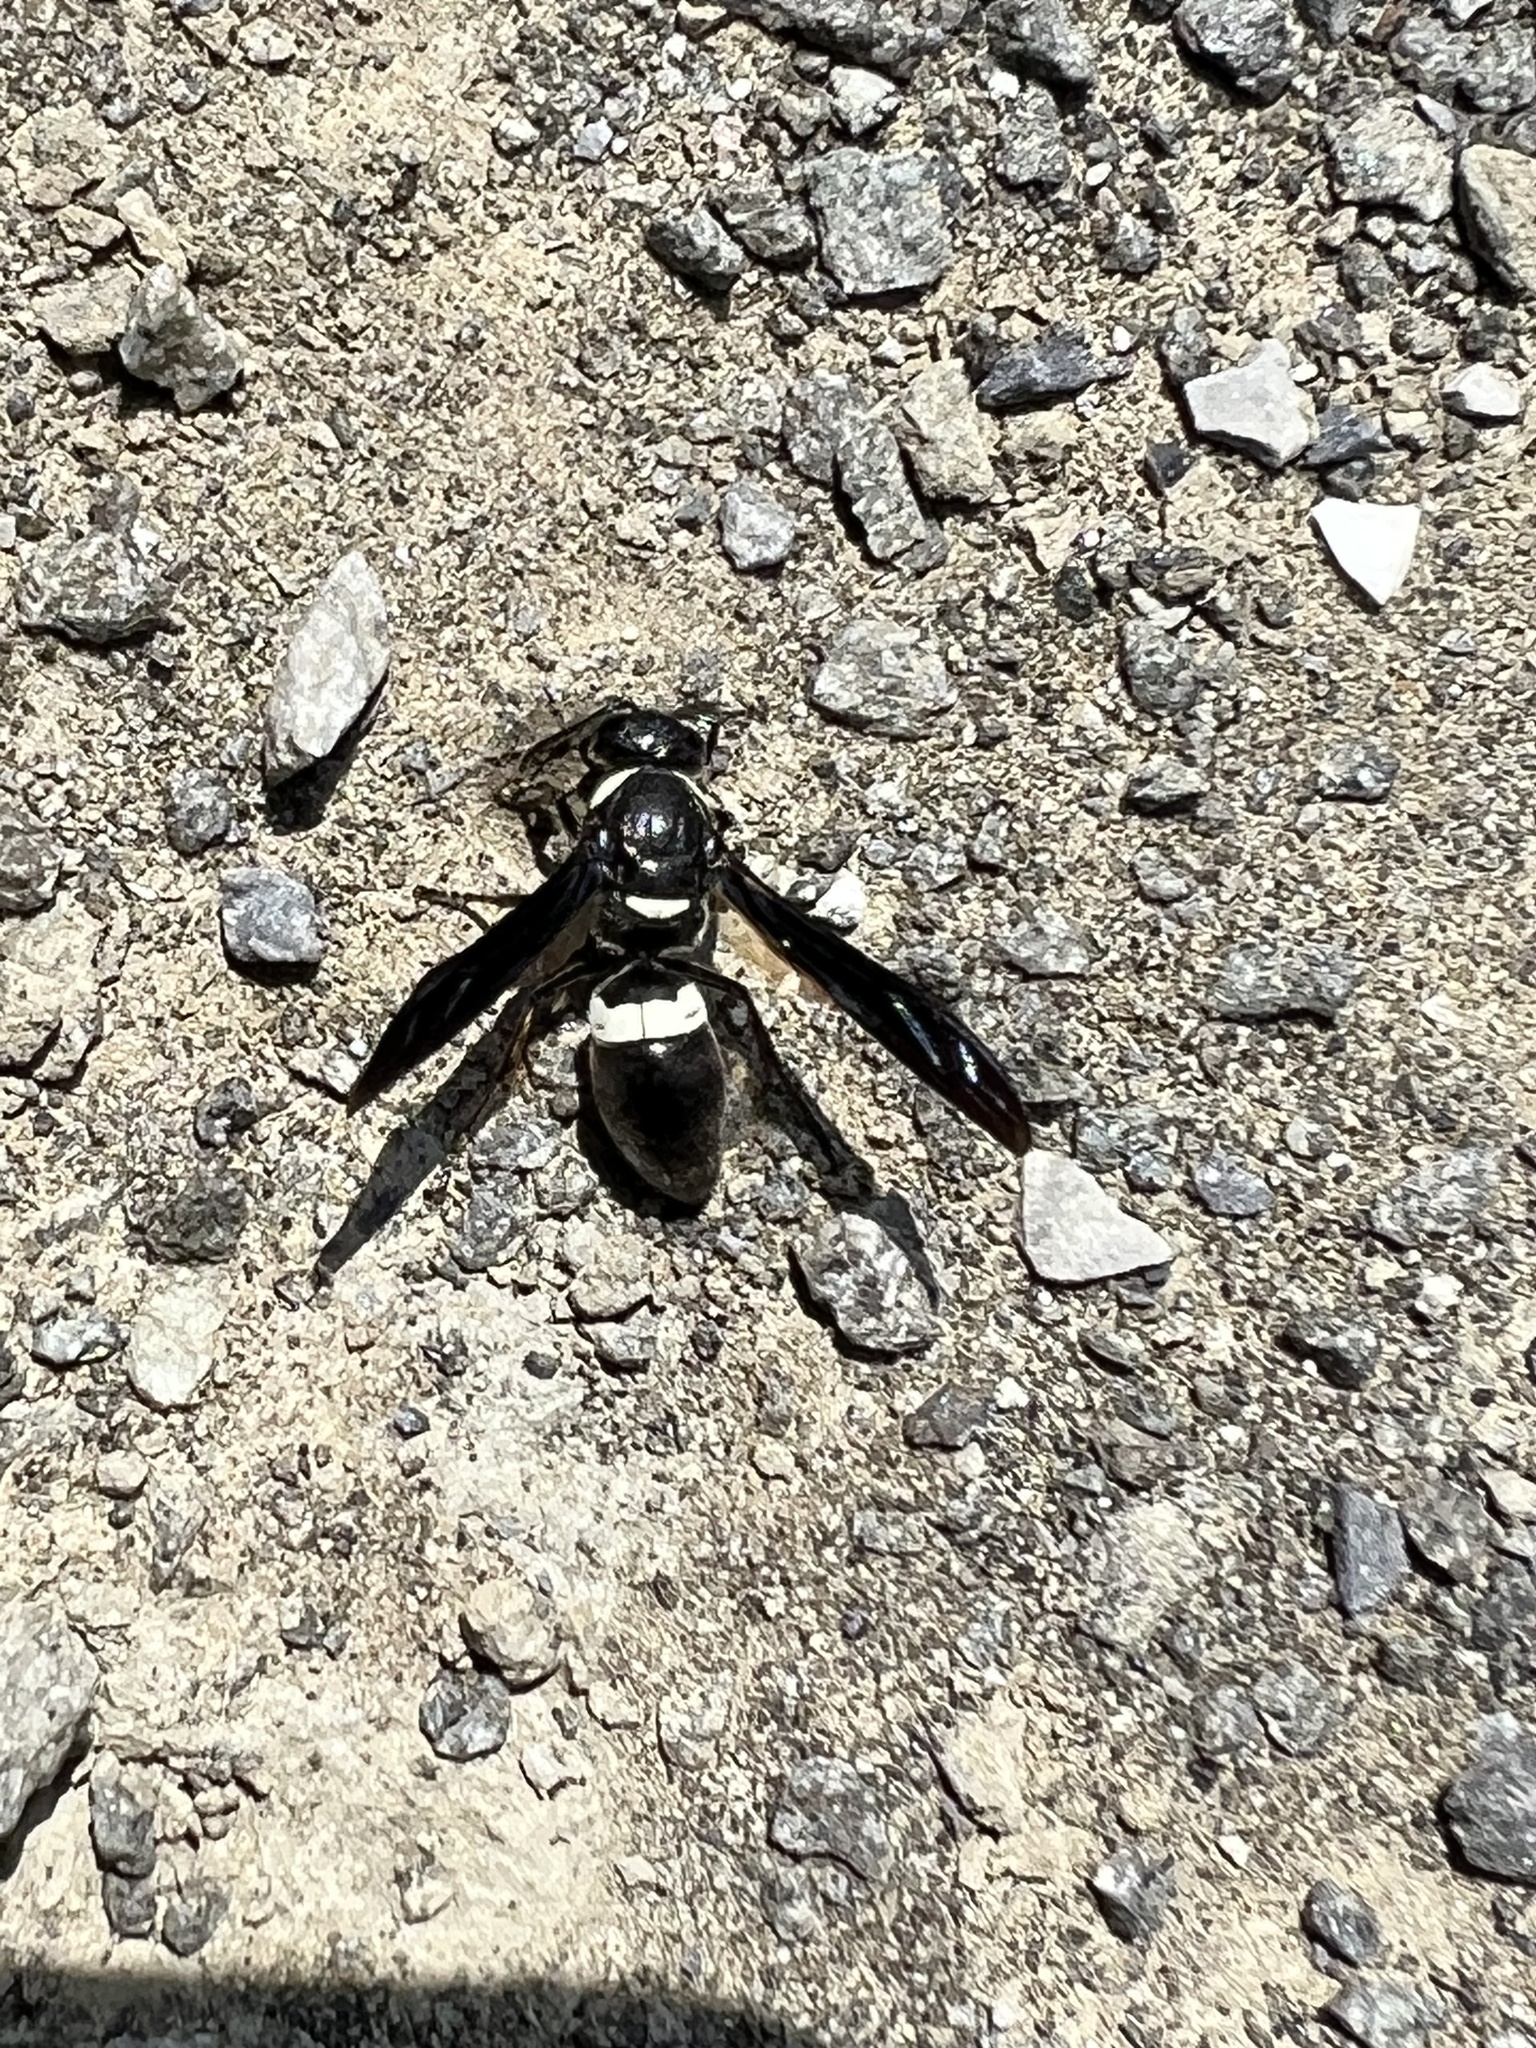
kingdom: Animalia
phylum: Arthropoda
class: Insecta
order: Hymenoptera
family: Eumenidae
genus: Monobia
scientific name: Monobia quadridens
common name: Four-toothed mason wasp
